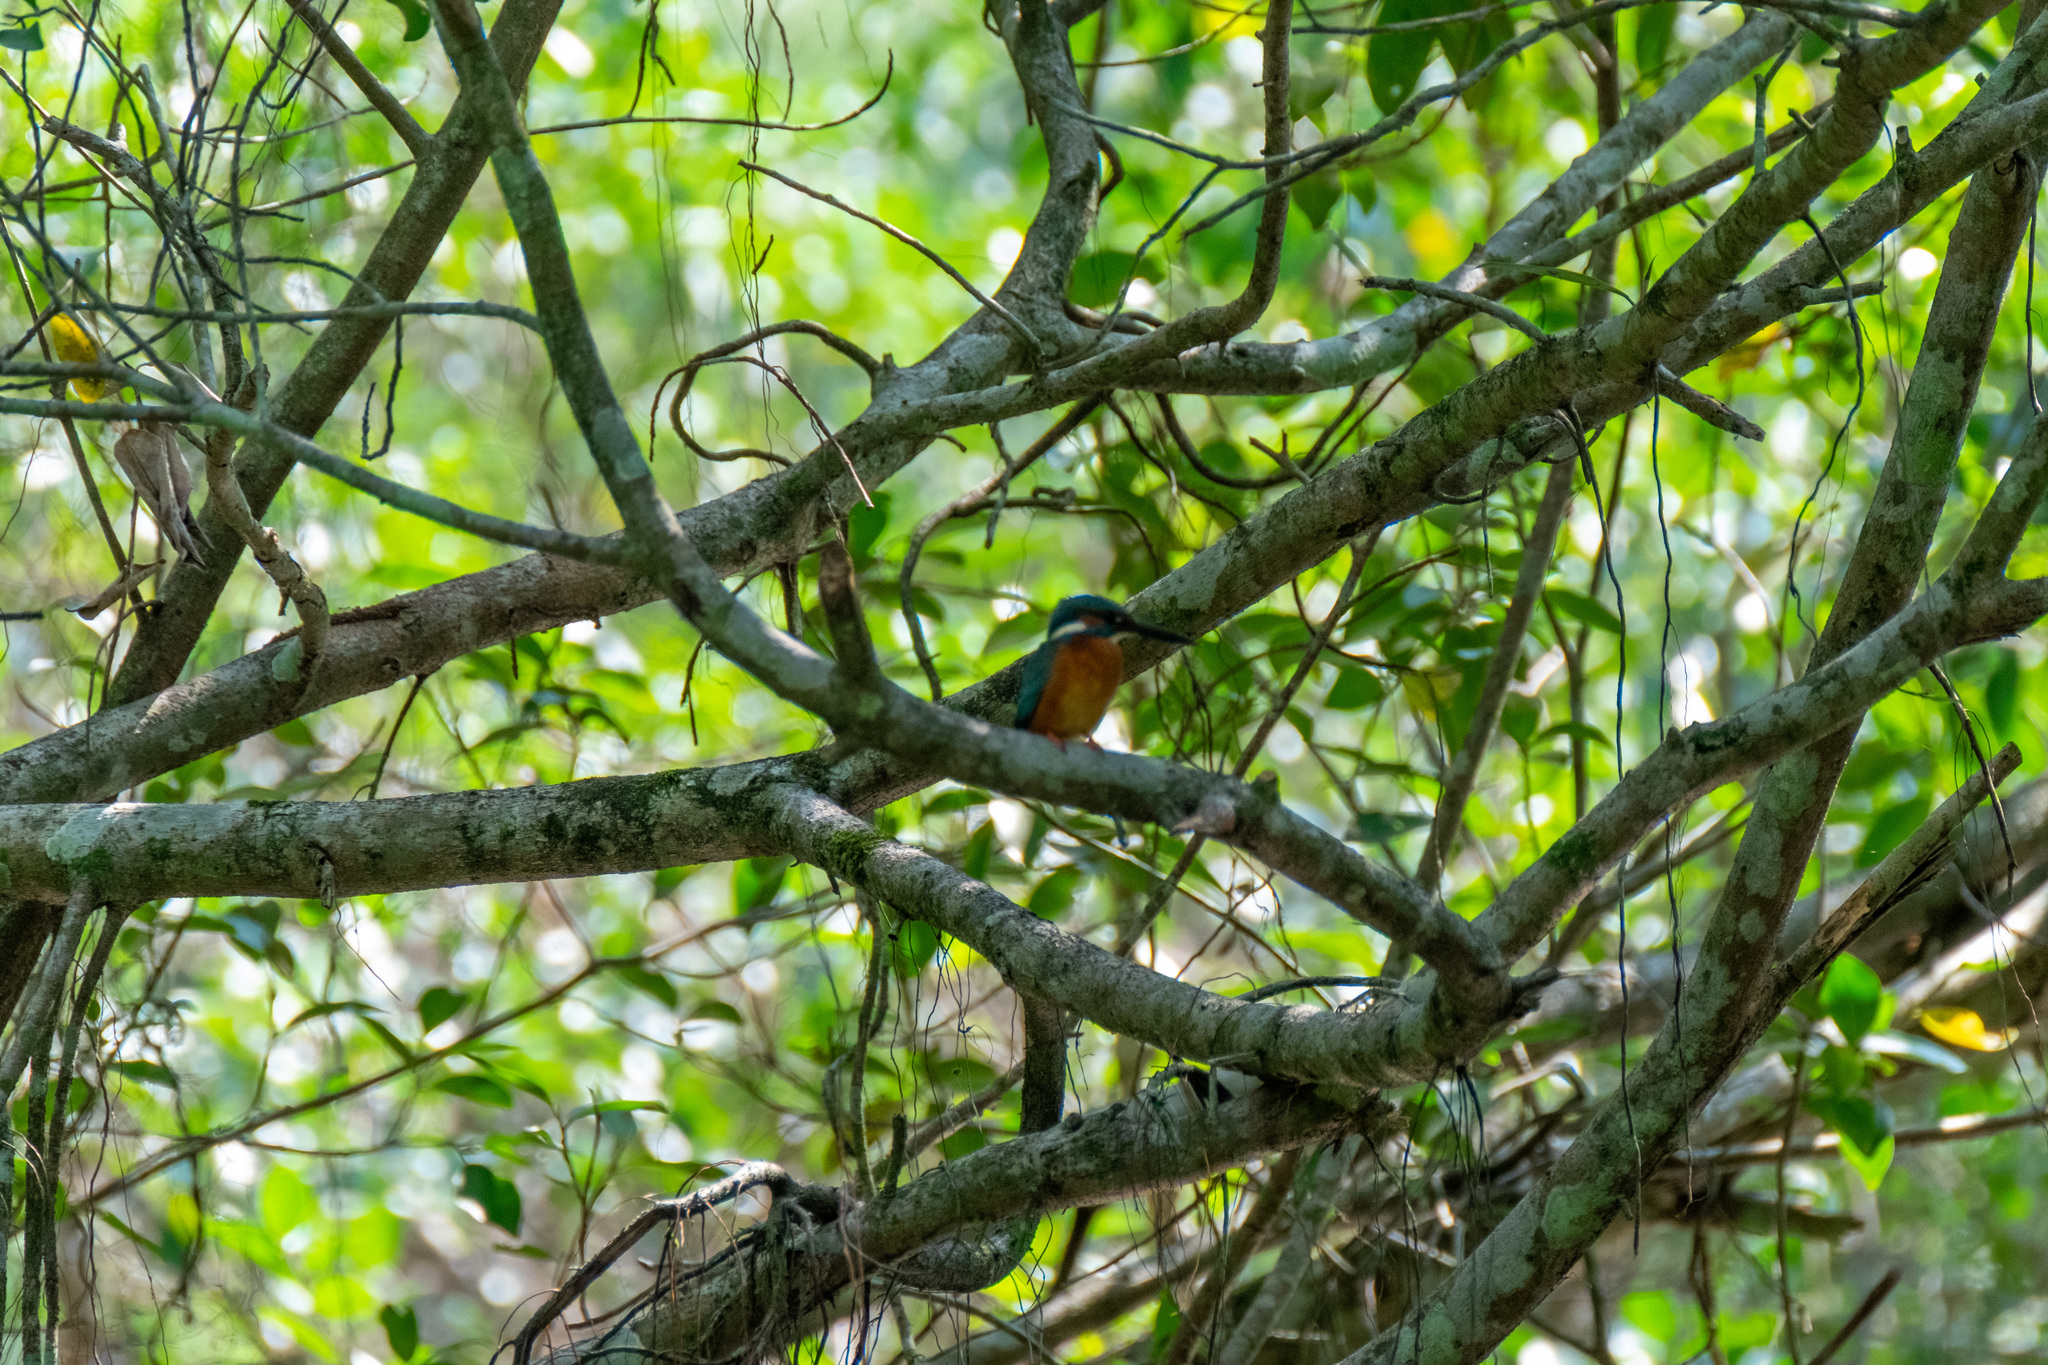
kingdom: Animalia
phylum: Chordata
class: Aves
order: Coraciiformes
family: Alcedinidae
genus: Alcedo
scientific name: Alcedo atthis
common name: Common kingfisher
